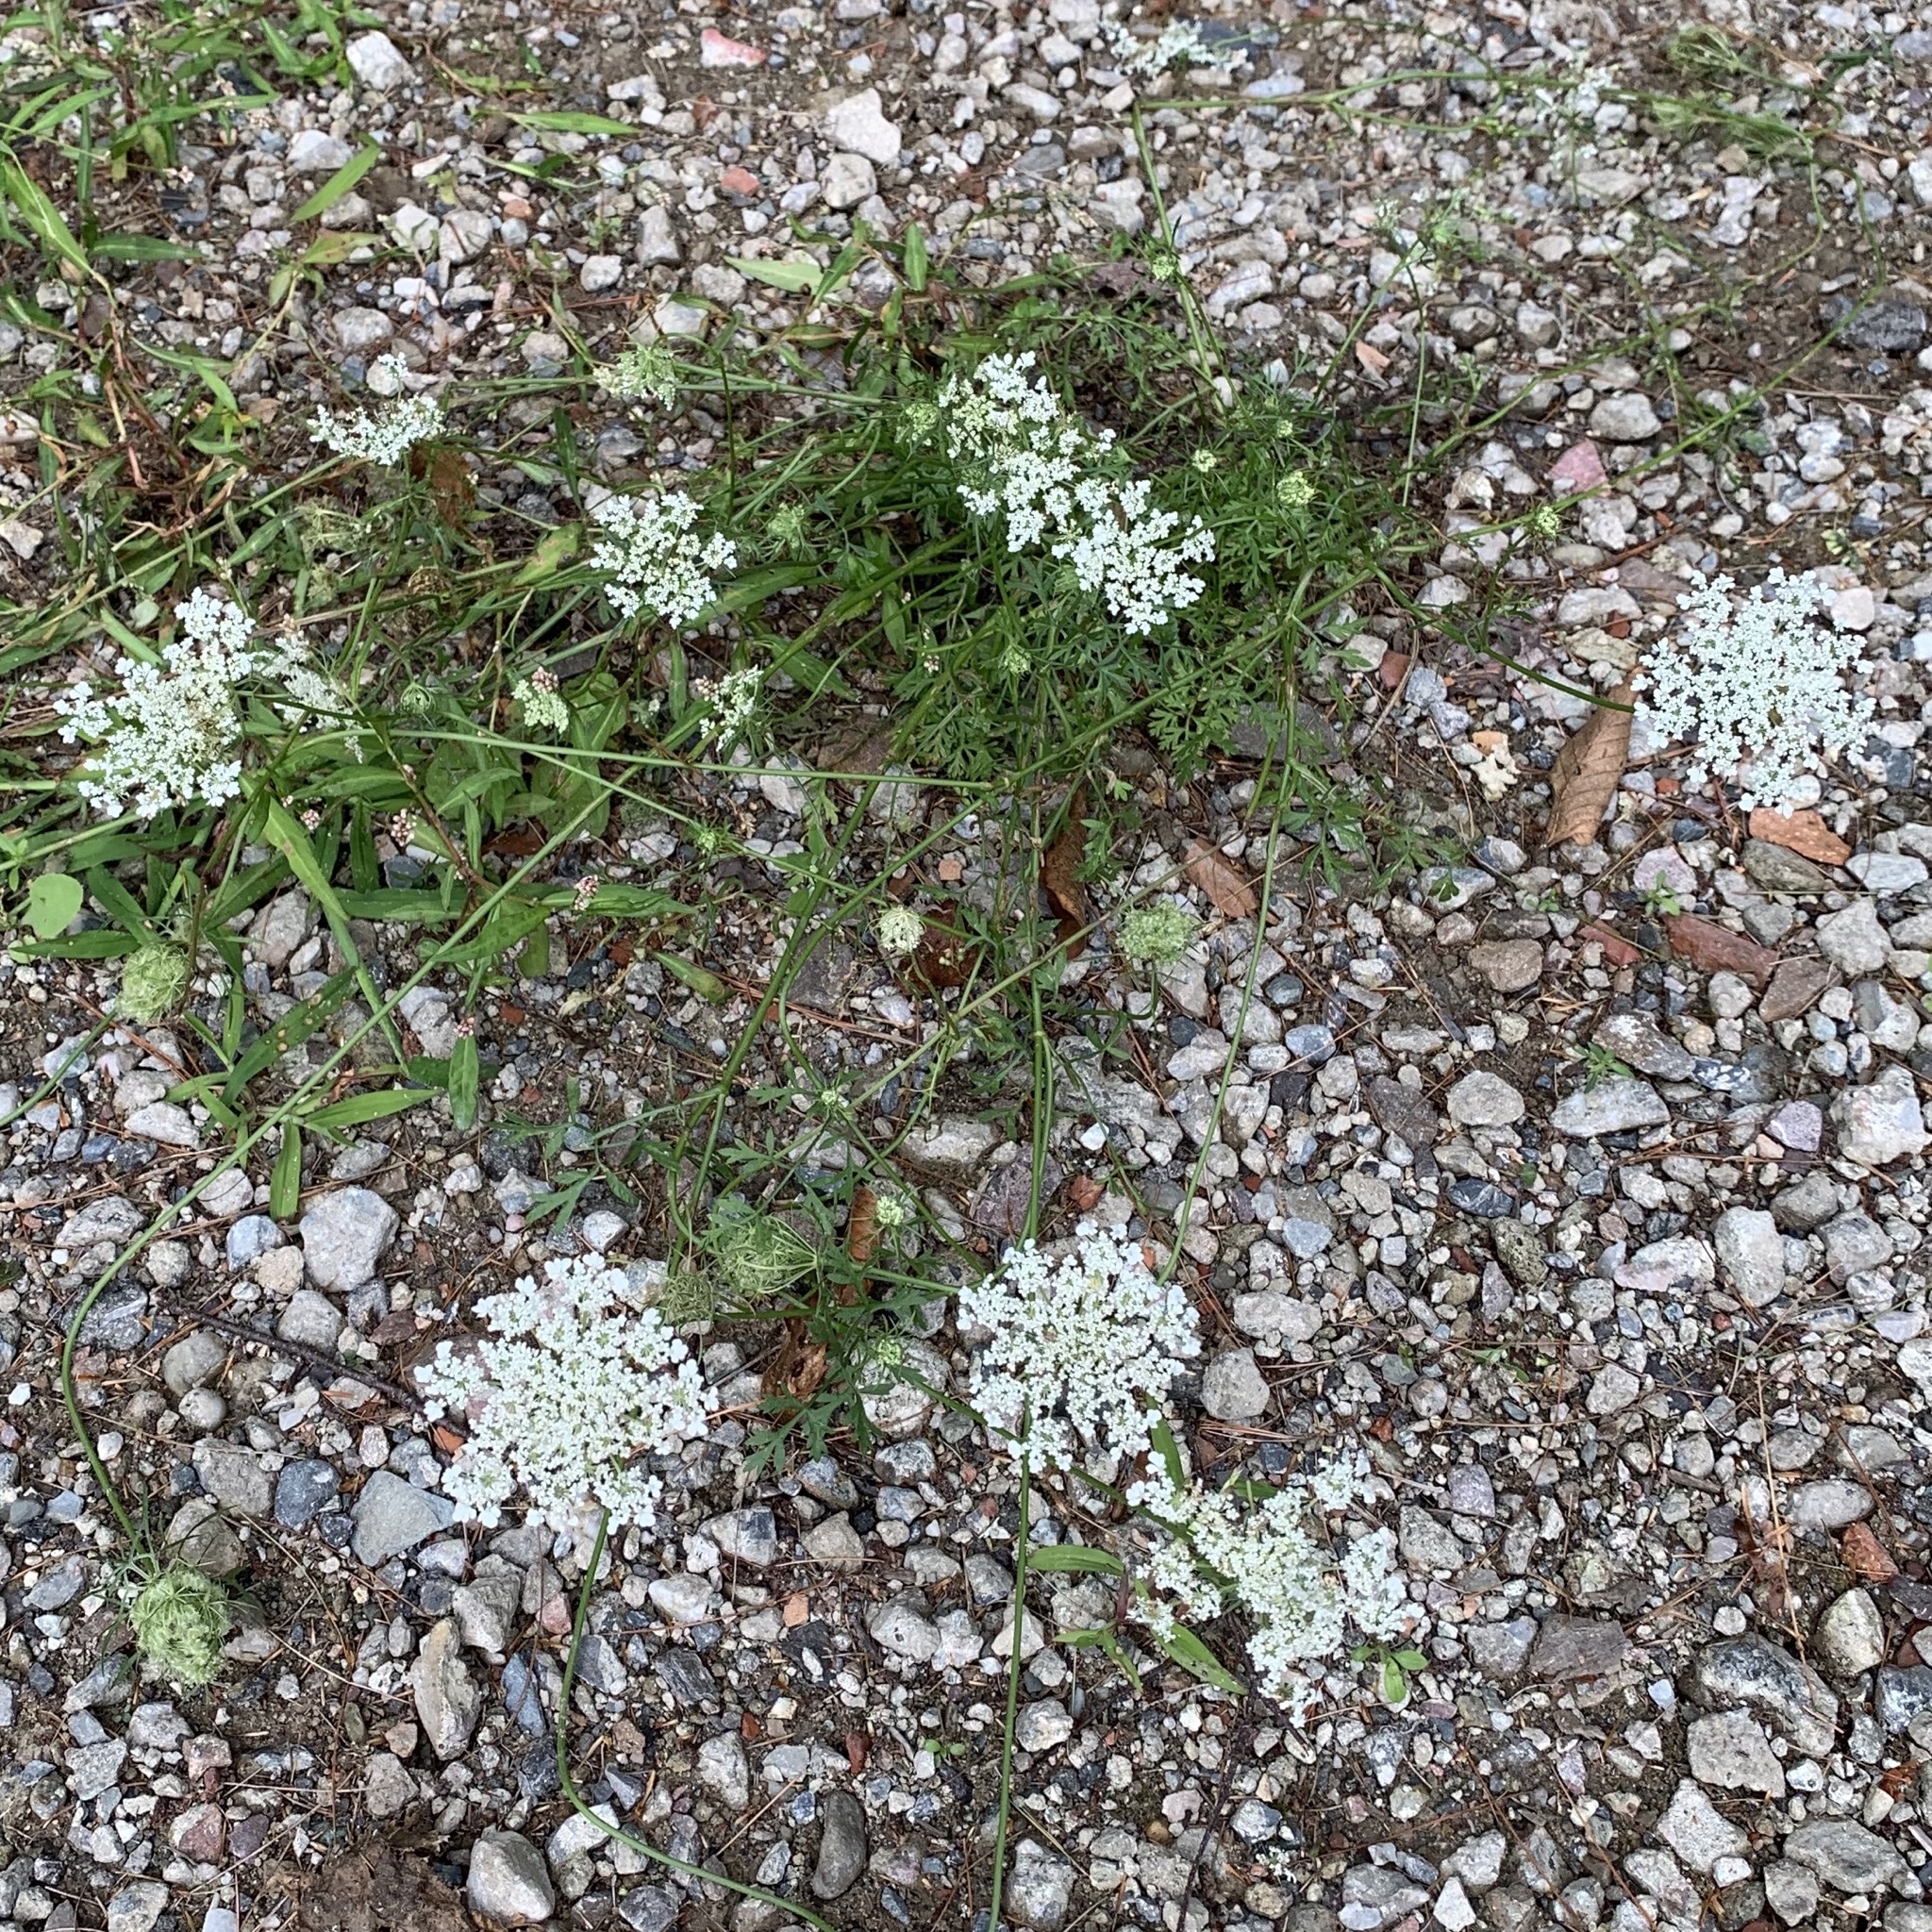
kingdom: Plantae
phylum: Tracheophyta
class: Magnoliopsida
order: Apiales
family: Apiaceae
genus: Daucus
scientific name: Daucus carota
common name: Wild carrot
